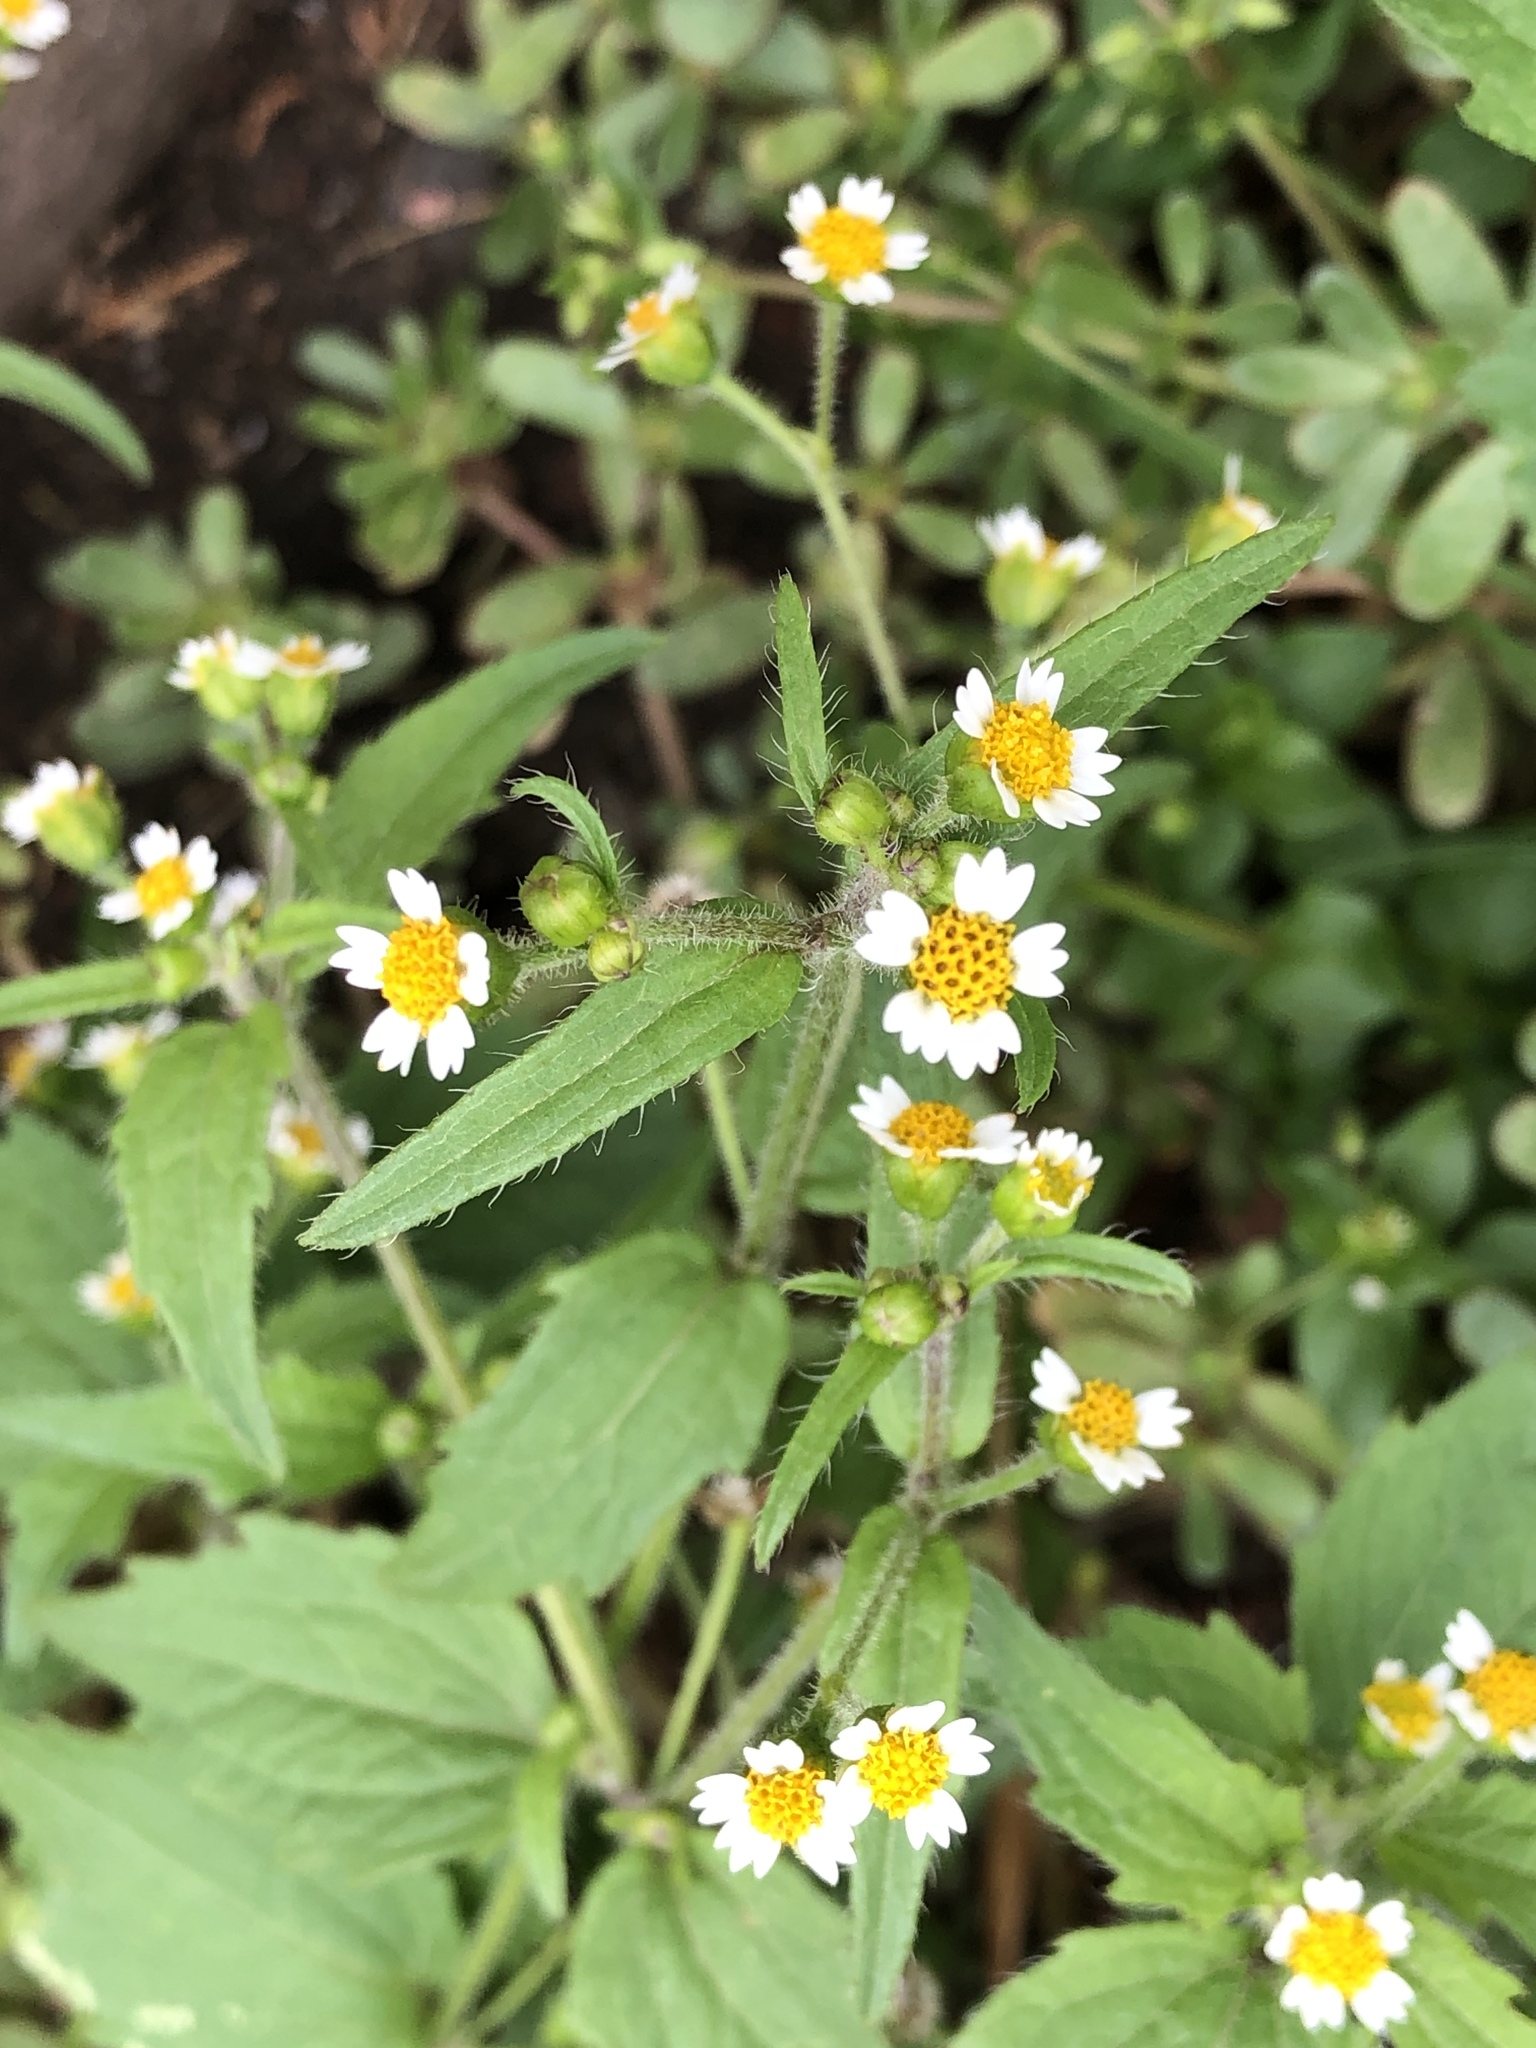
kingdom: Plantae
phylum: Tracheophyta
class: Magnoliopsida
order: Asterales
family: Asteraceae
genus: Galinsoga
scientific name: Galinsoga quadriradiata
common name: Shaggy soldier
